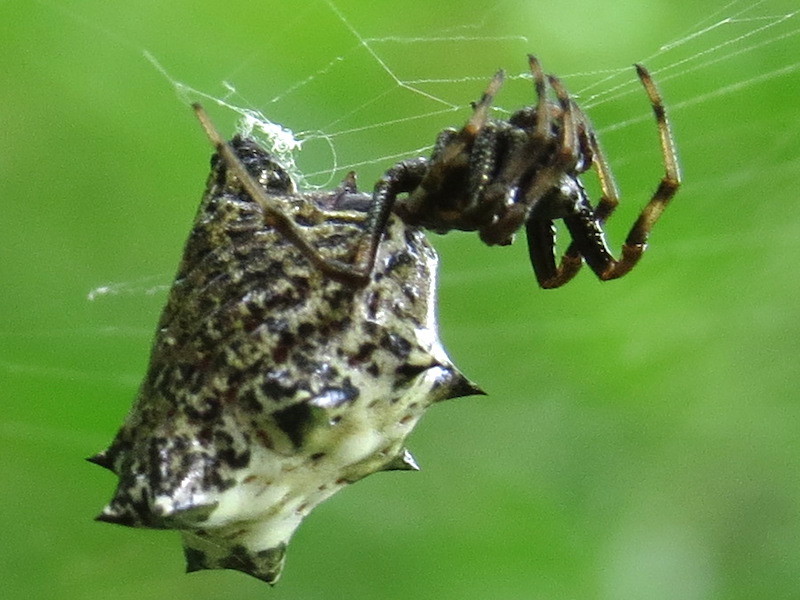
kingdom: Animalia
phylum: Arthropoda
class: Arachnida
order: Araneae
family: Araneidae
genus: Micrathena
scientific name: Micrathena gracilis
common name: Orb weavers
